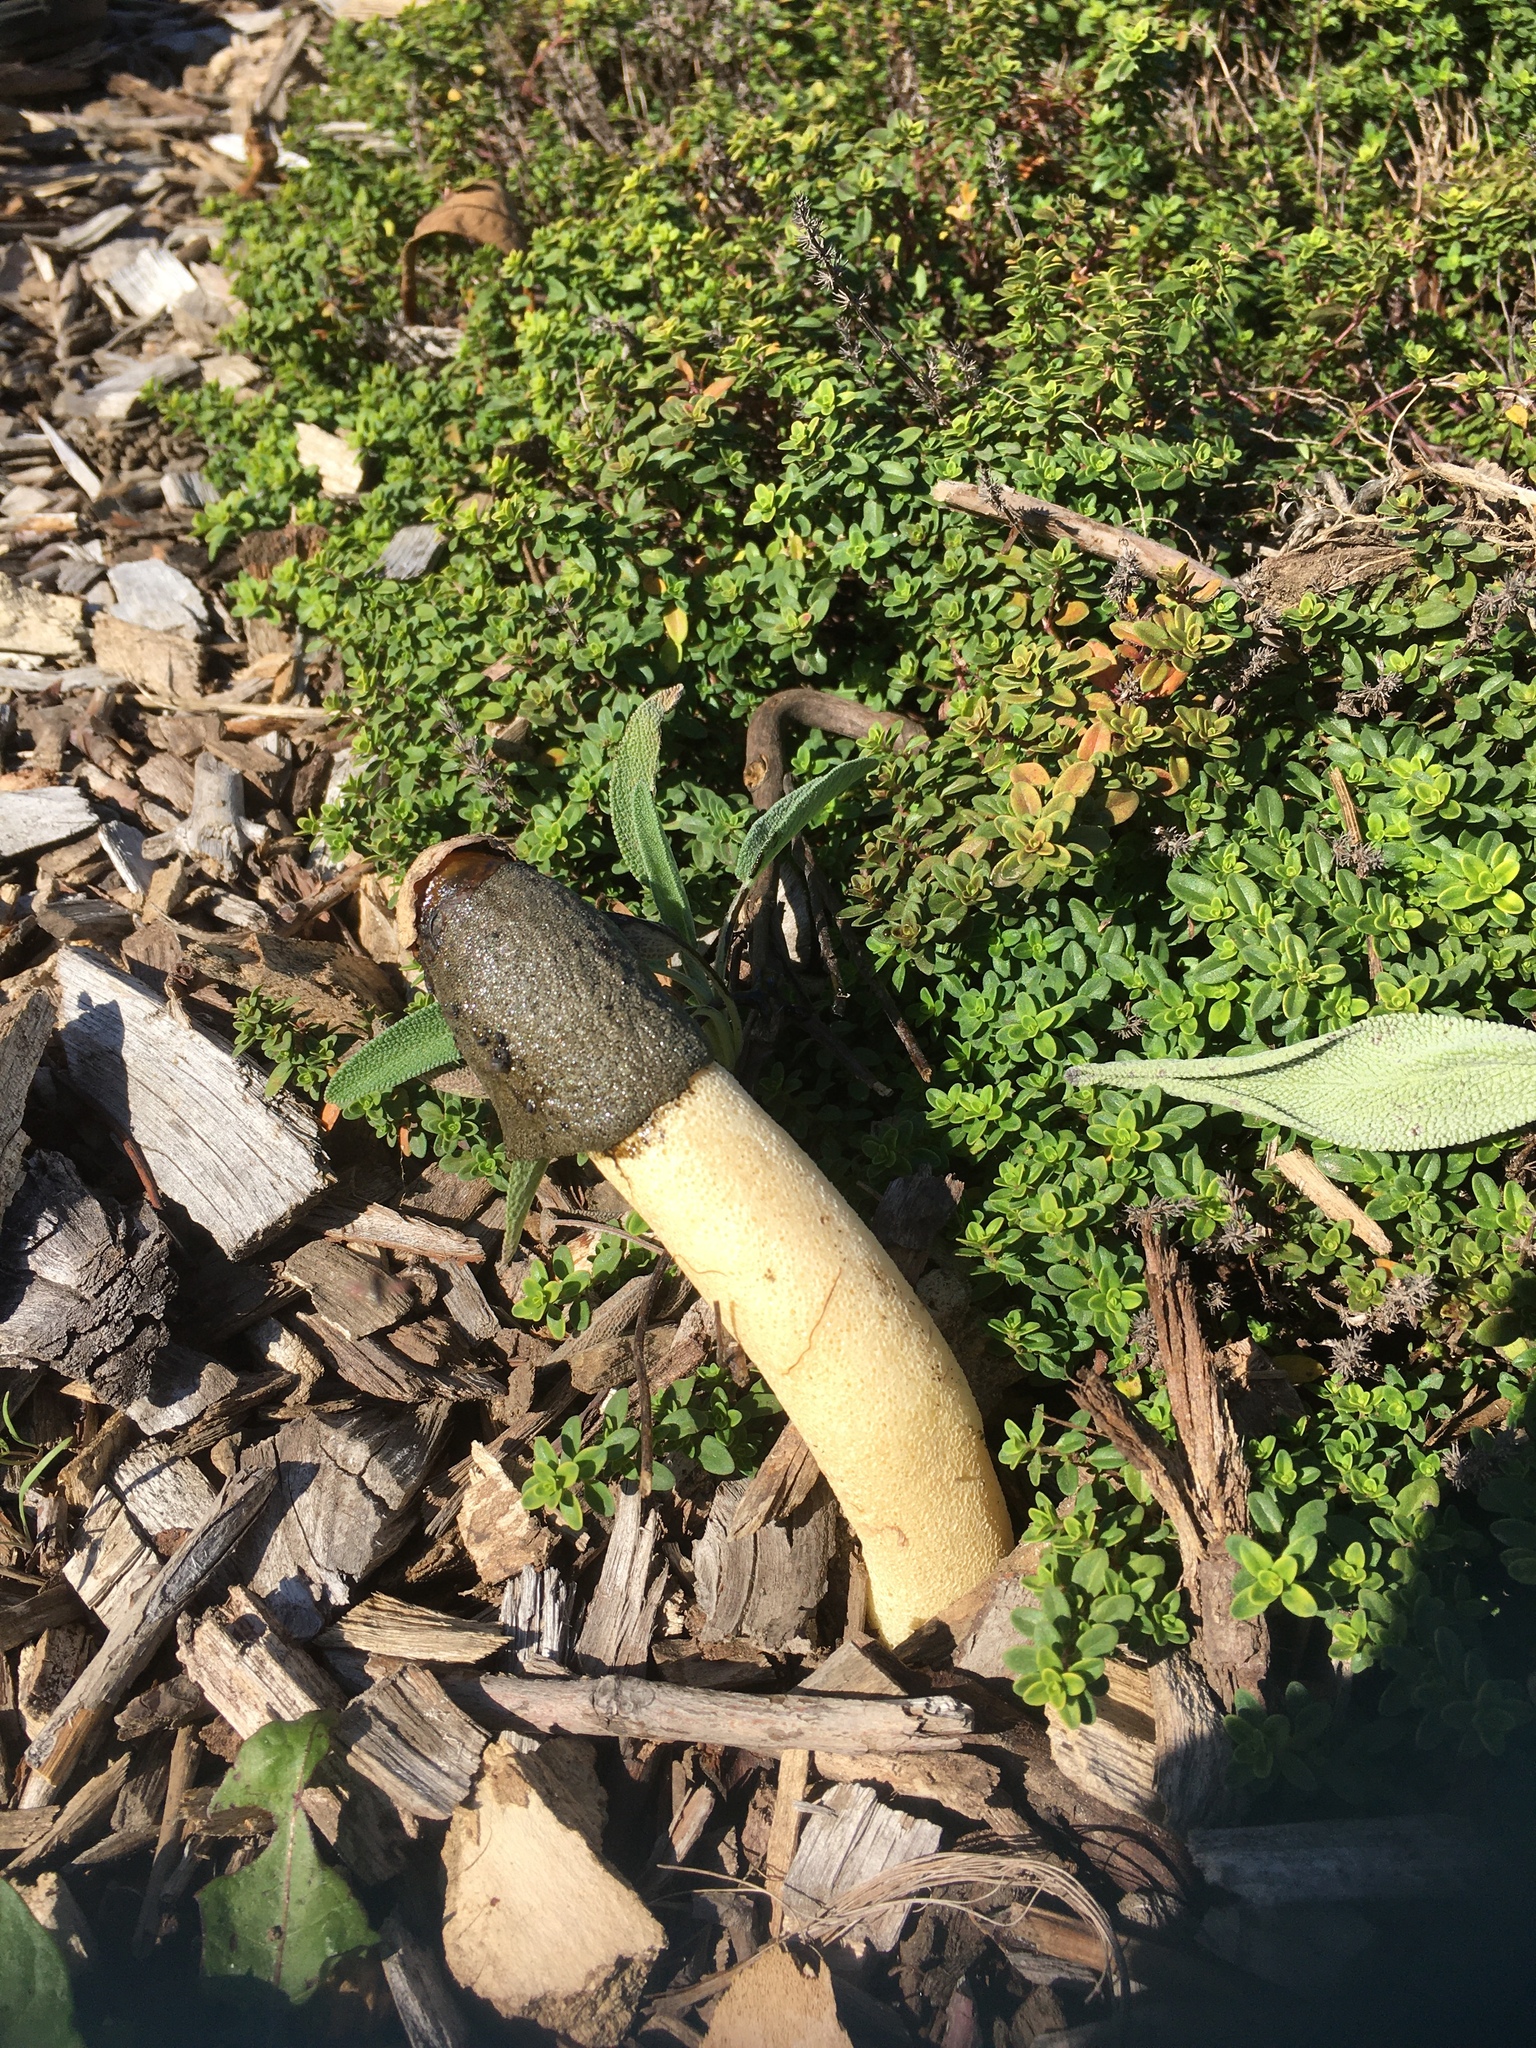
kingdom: Fungi
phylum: Basidiomycota
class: Agaricomycetes
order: Phallales
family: Phallaceae
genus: Phallus
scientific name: Phallus ravenelii
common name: Ravenel's stinkhorn
